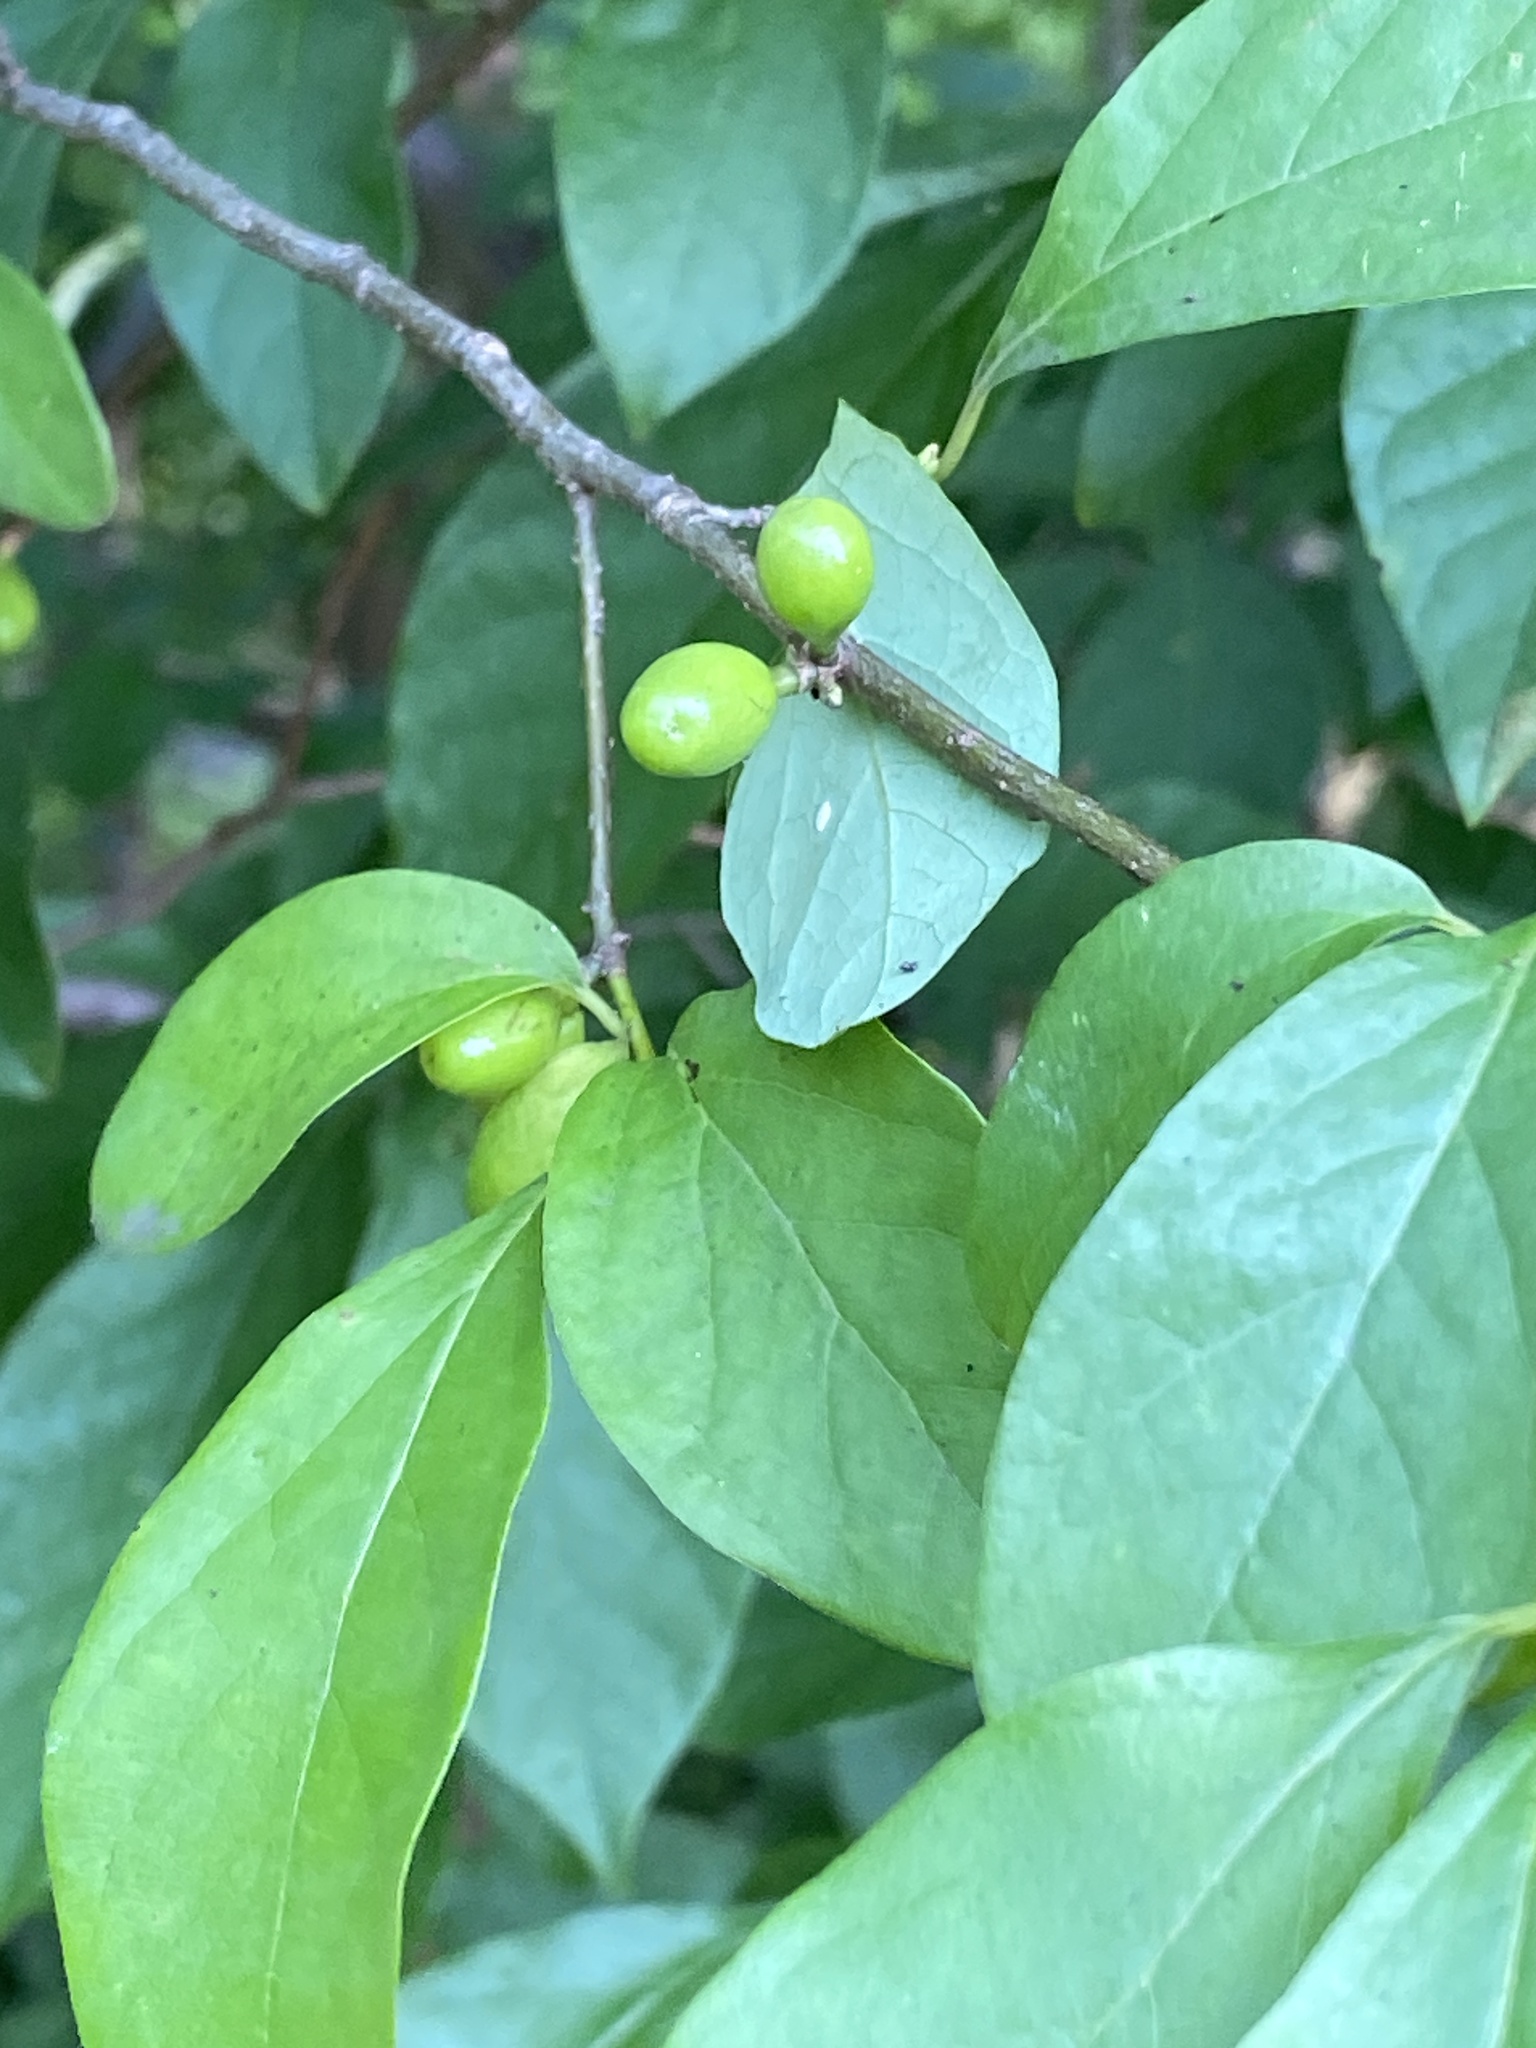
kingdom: Plantae
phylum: Tracheophyta
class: Magnoliopsida
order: Laurales
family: Lauraceae
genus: Lindera
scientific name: Lindera benzoin
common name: Spicebush
